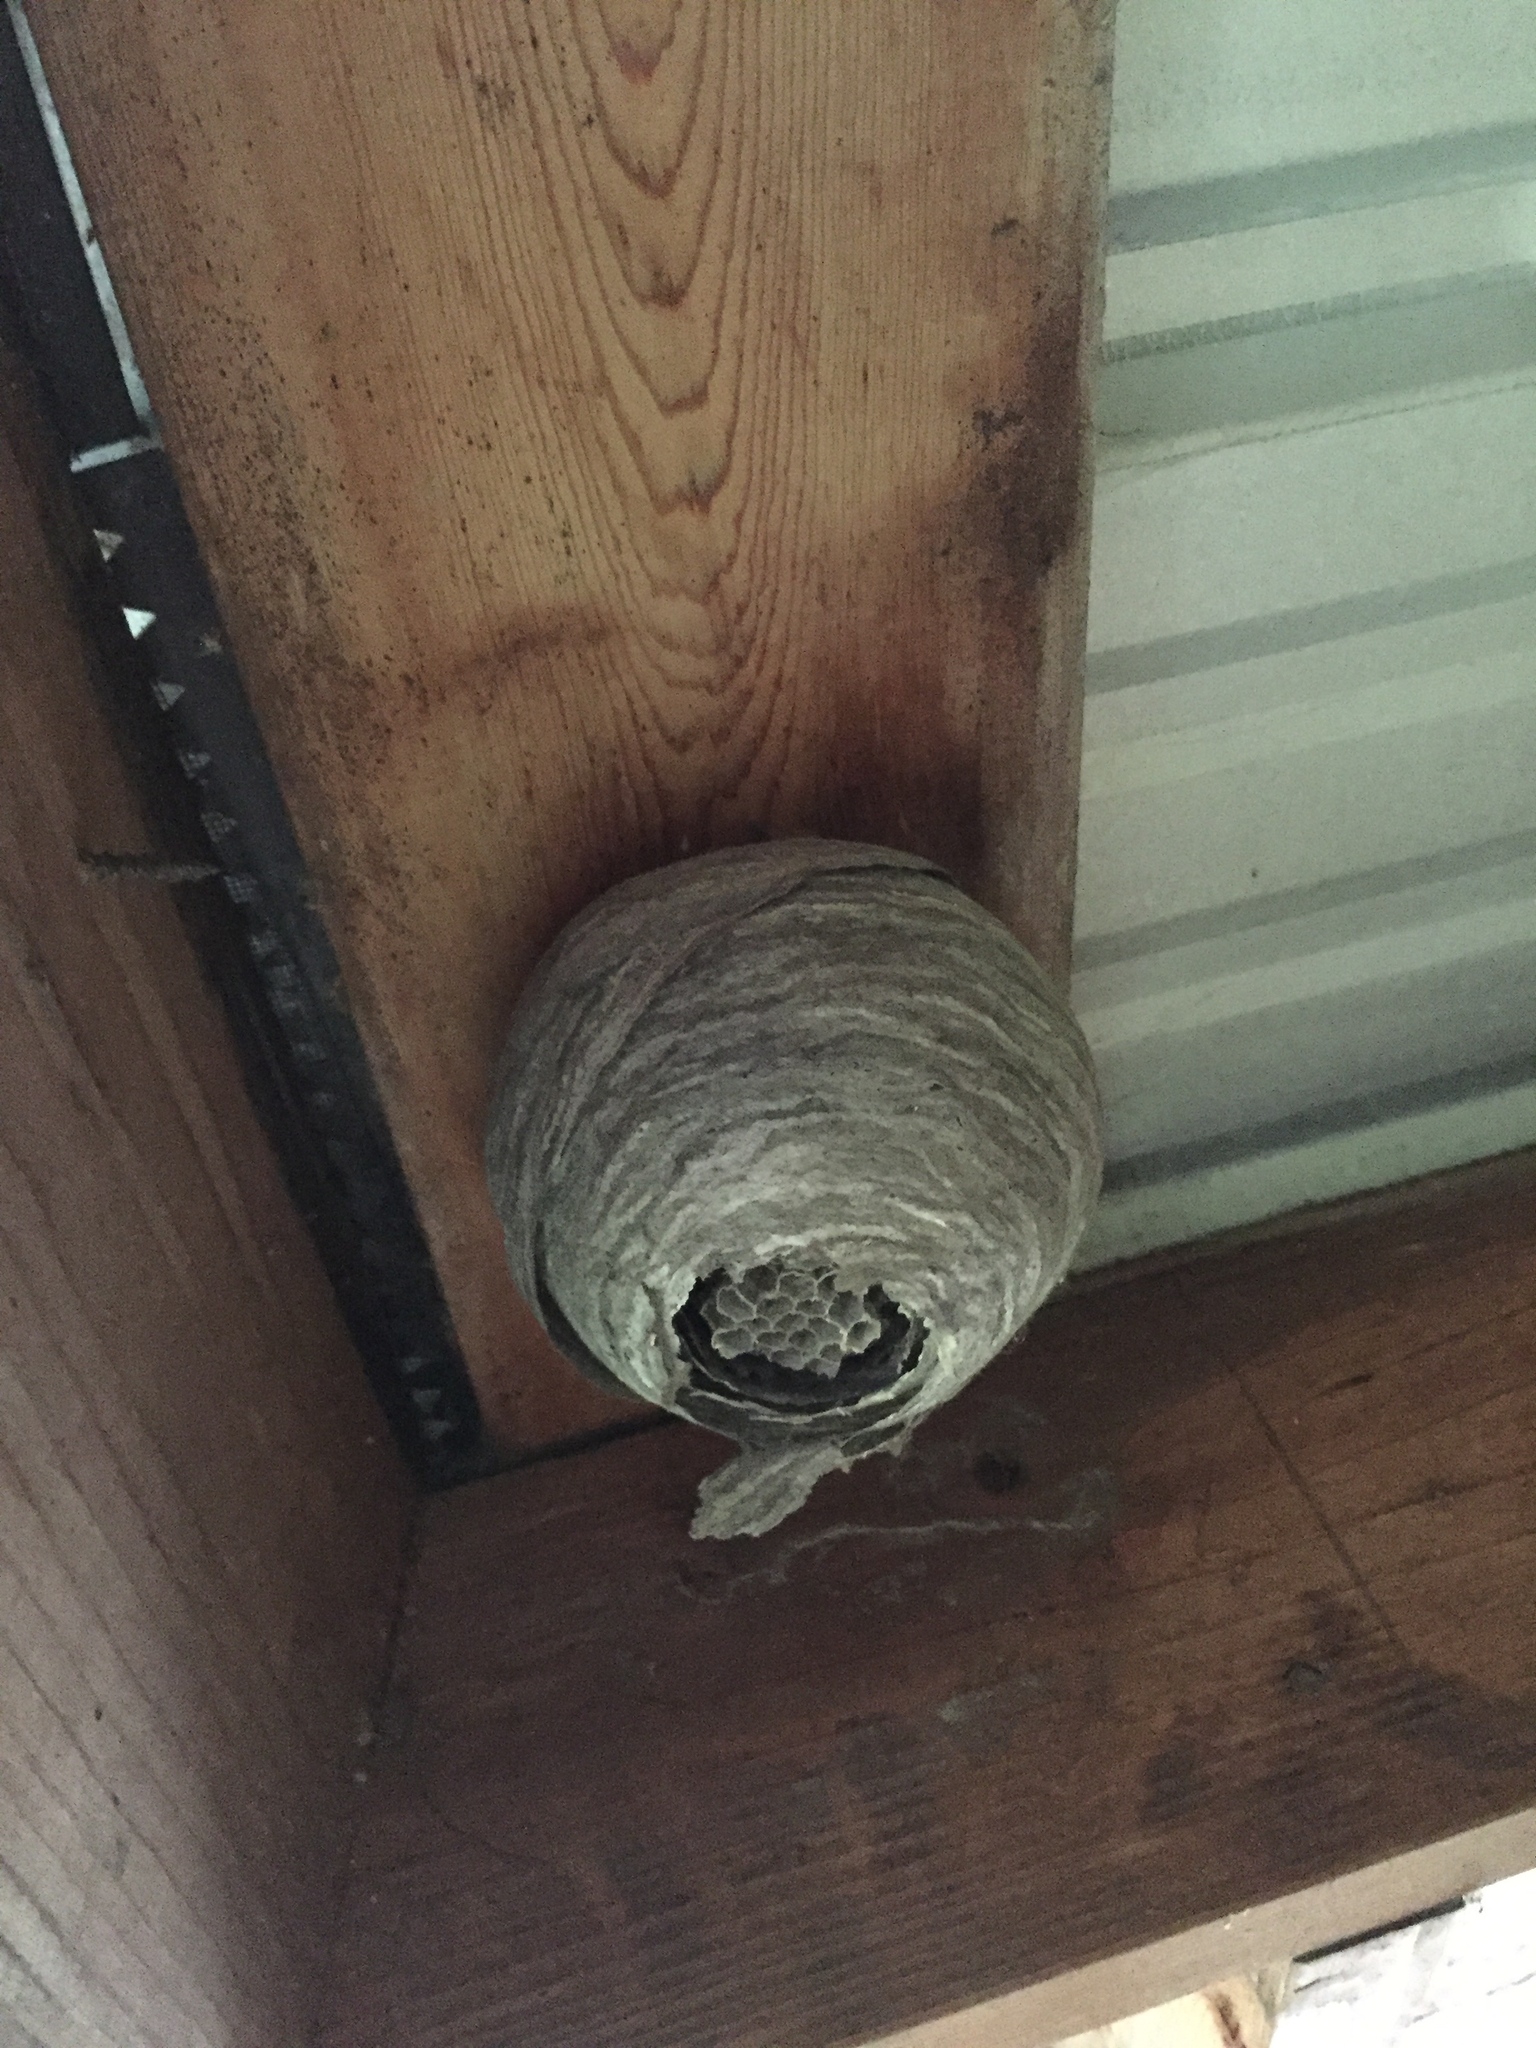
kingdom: Animalia
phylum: Arthropoda
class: Insecta
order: Hymenoptera
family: Vespidae
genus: Dolichovespula
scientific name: Dolichovespula
